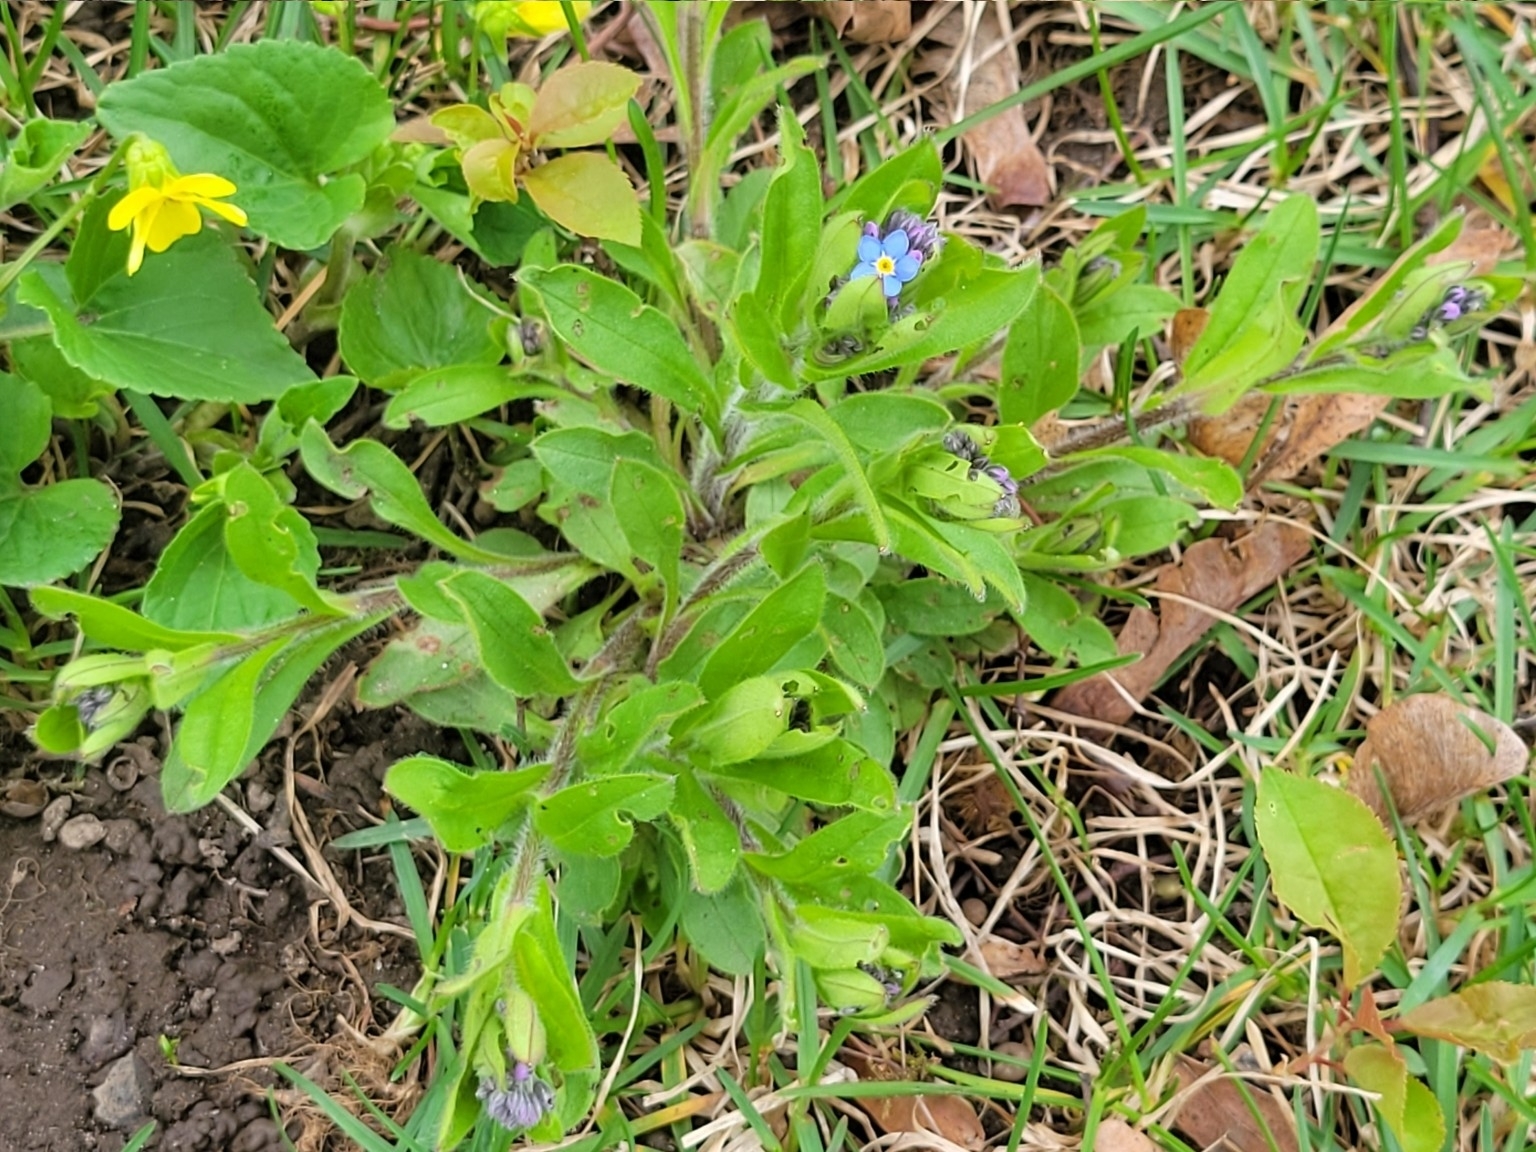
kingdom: Plantae
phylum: Tracheophyta
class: Magnoliopsida
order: Boraginales
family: Boraginaceae
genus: Myosotis
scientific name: Myosotis sylvatica
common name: Wood forget-me-not
